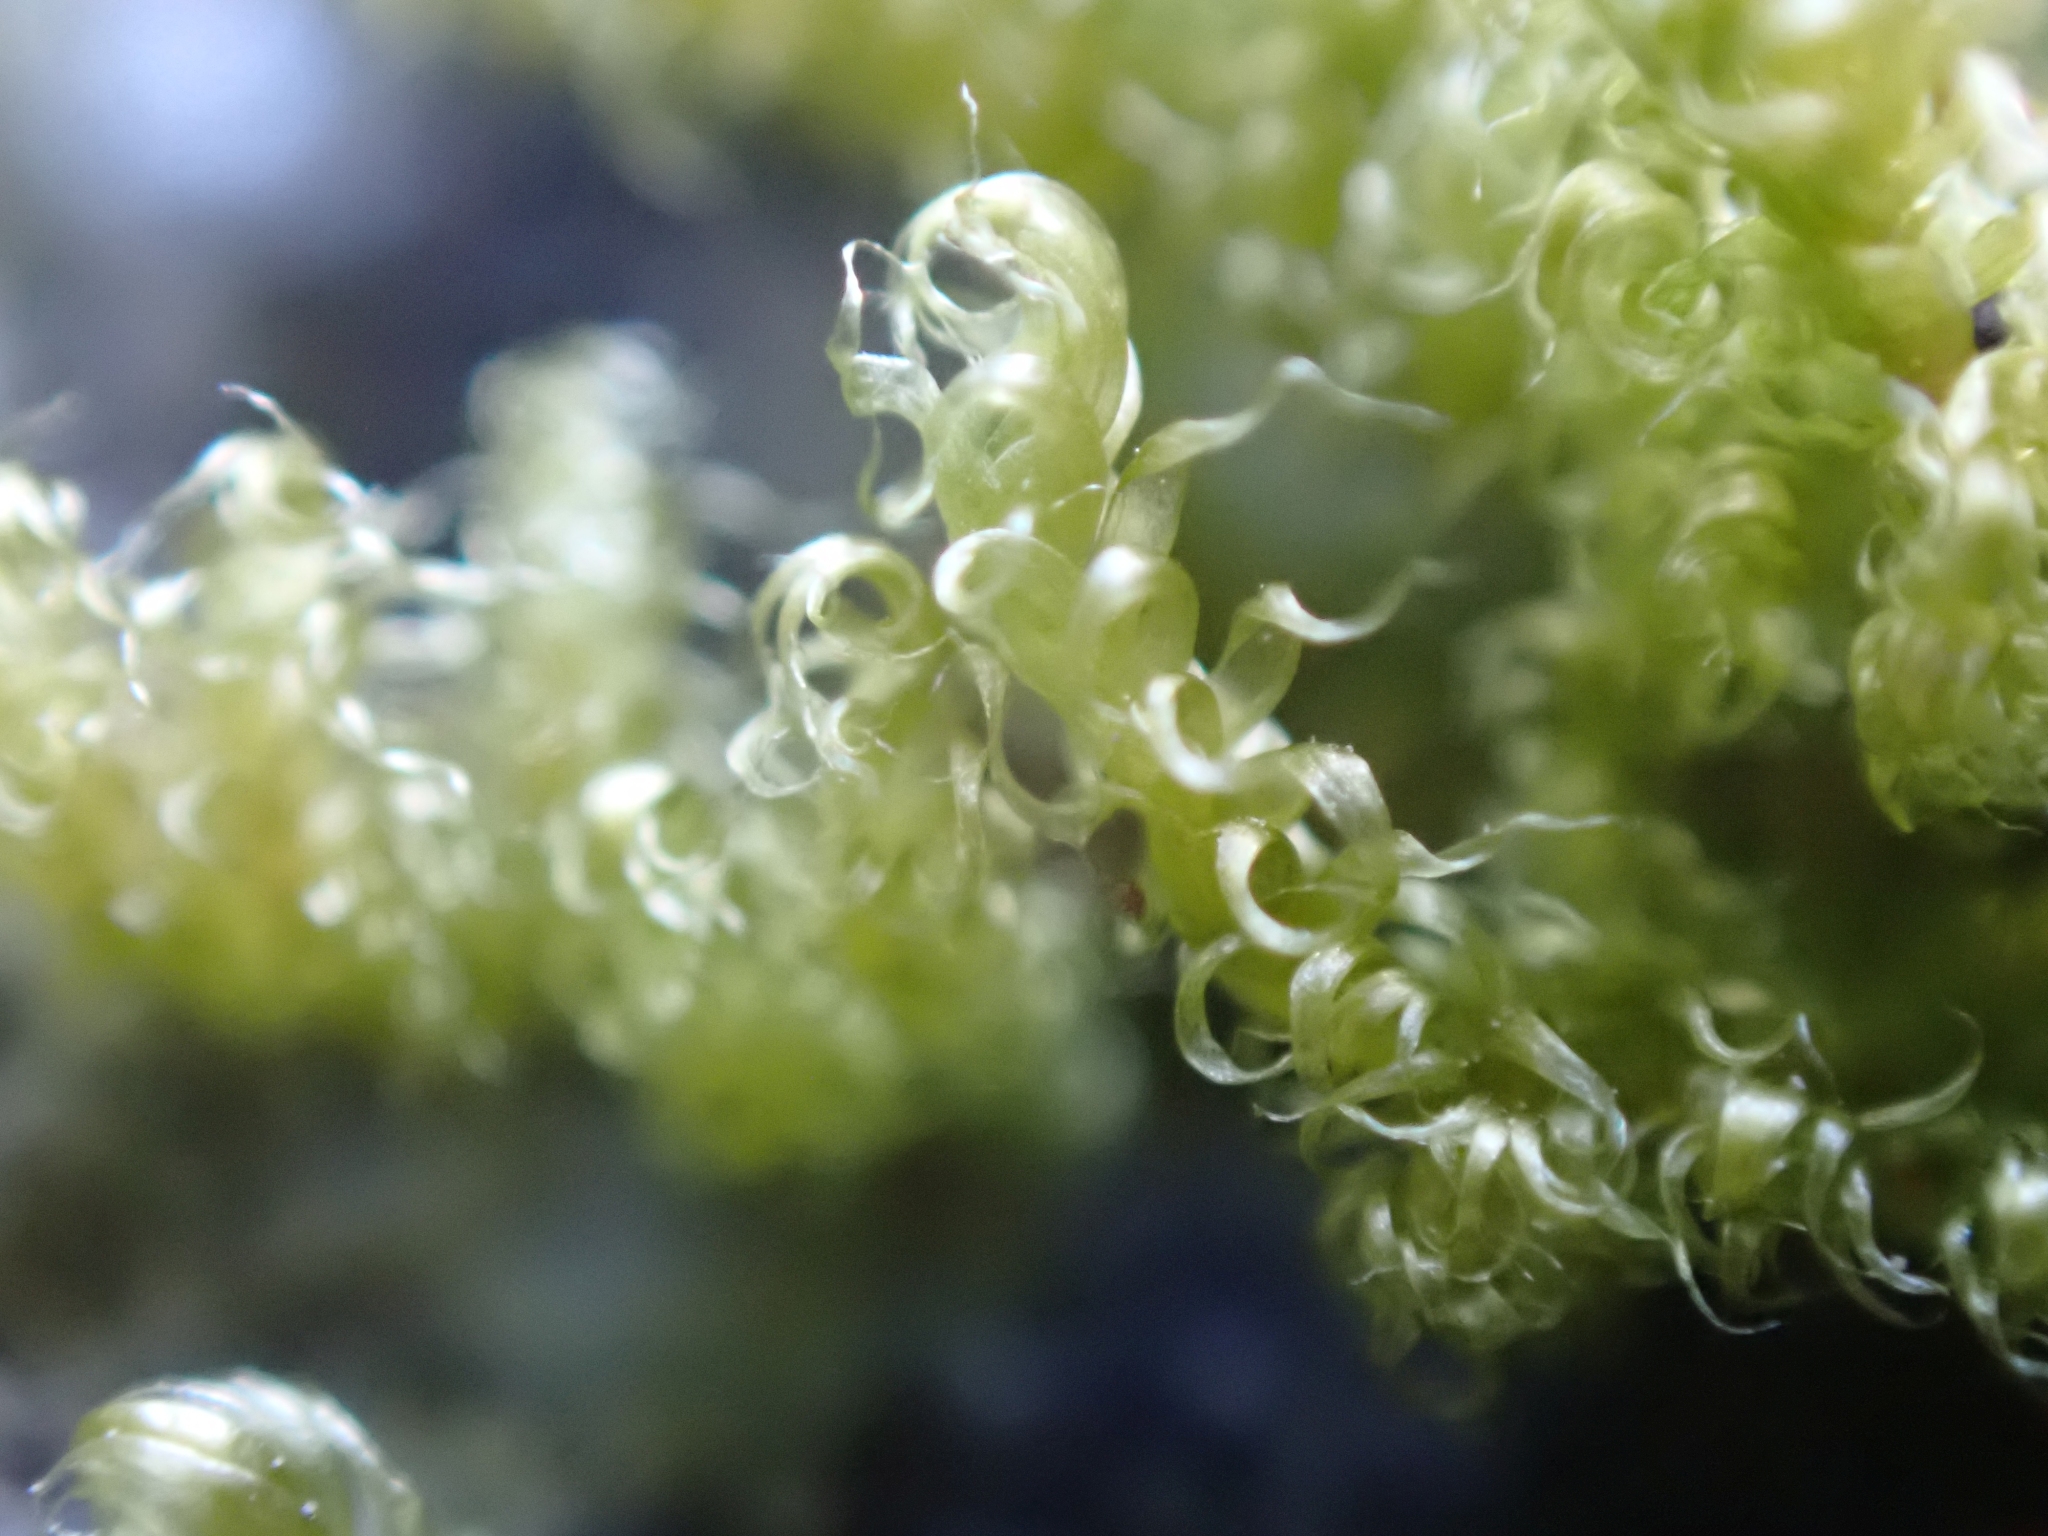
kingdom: Plantae
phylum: Bryophyta
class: Bryopsida
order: Hypnales
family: Stereodontaceae
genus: Stereodon
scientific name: Stereodon subimponens
